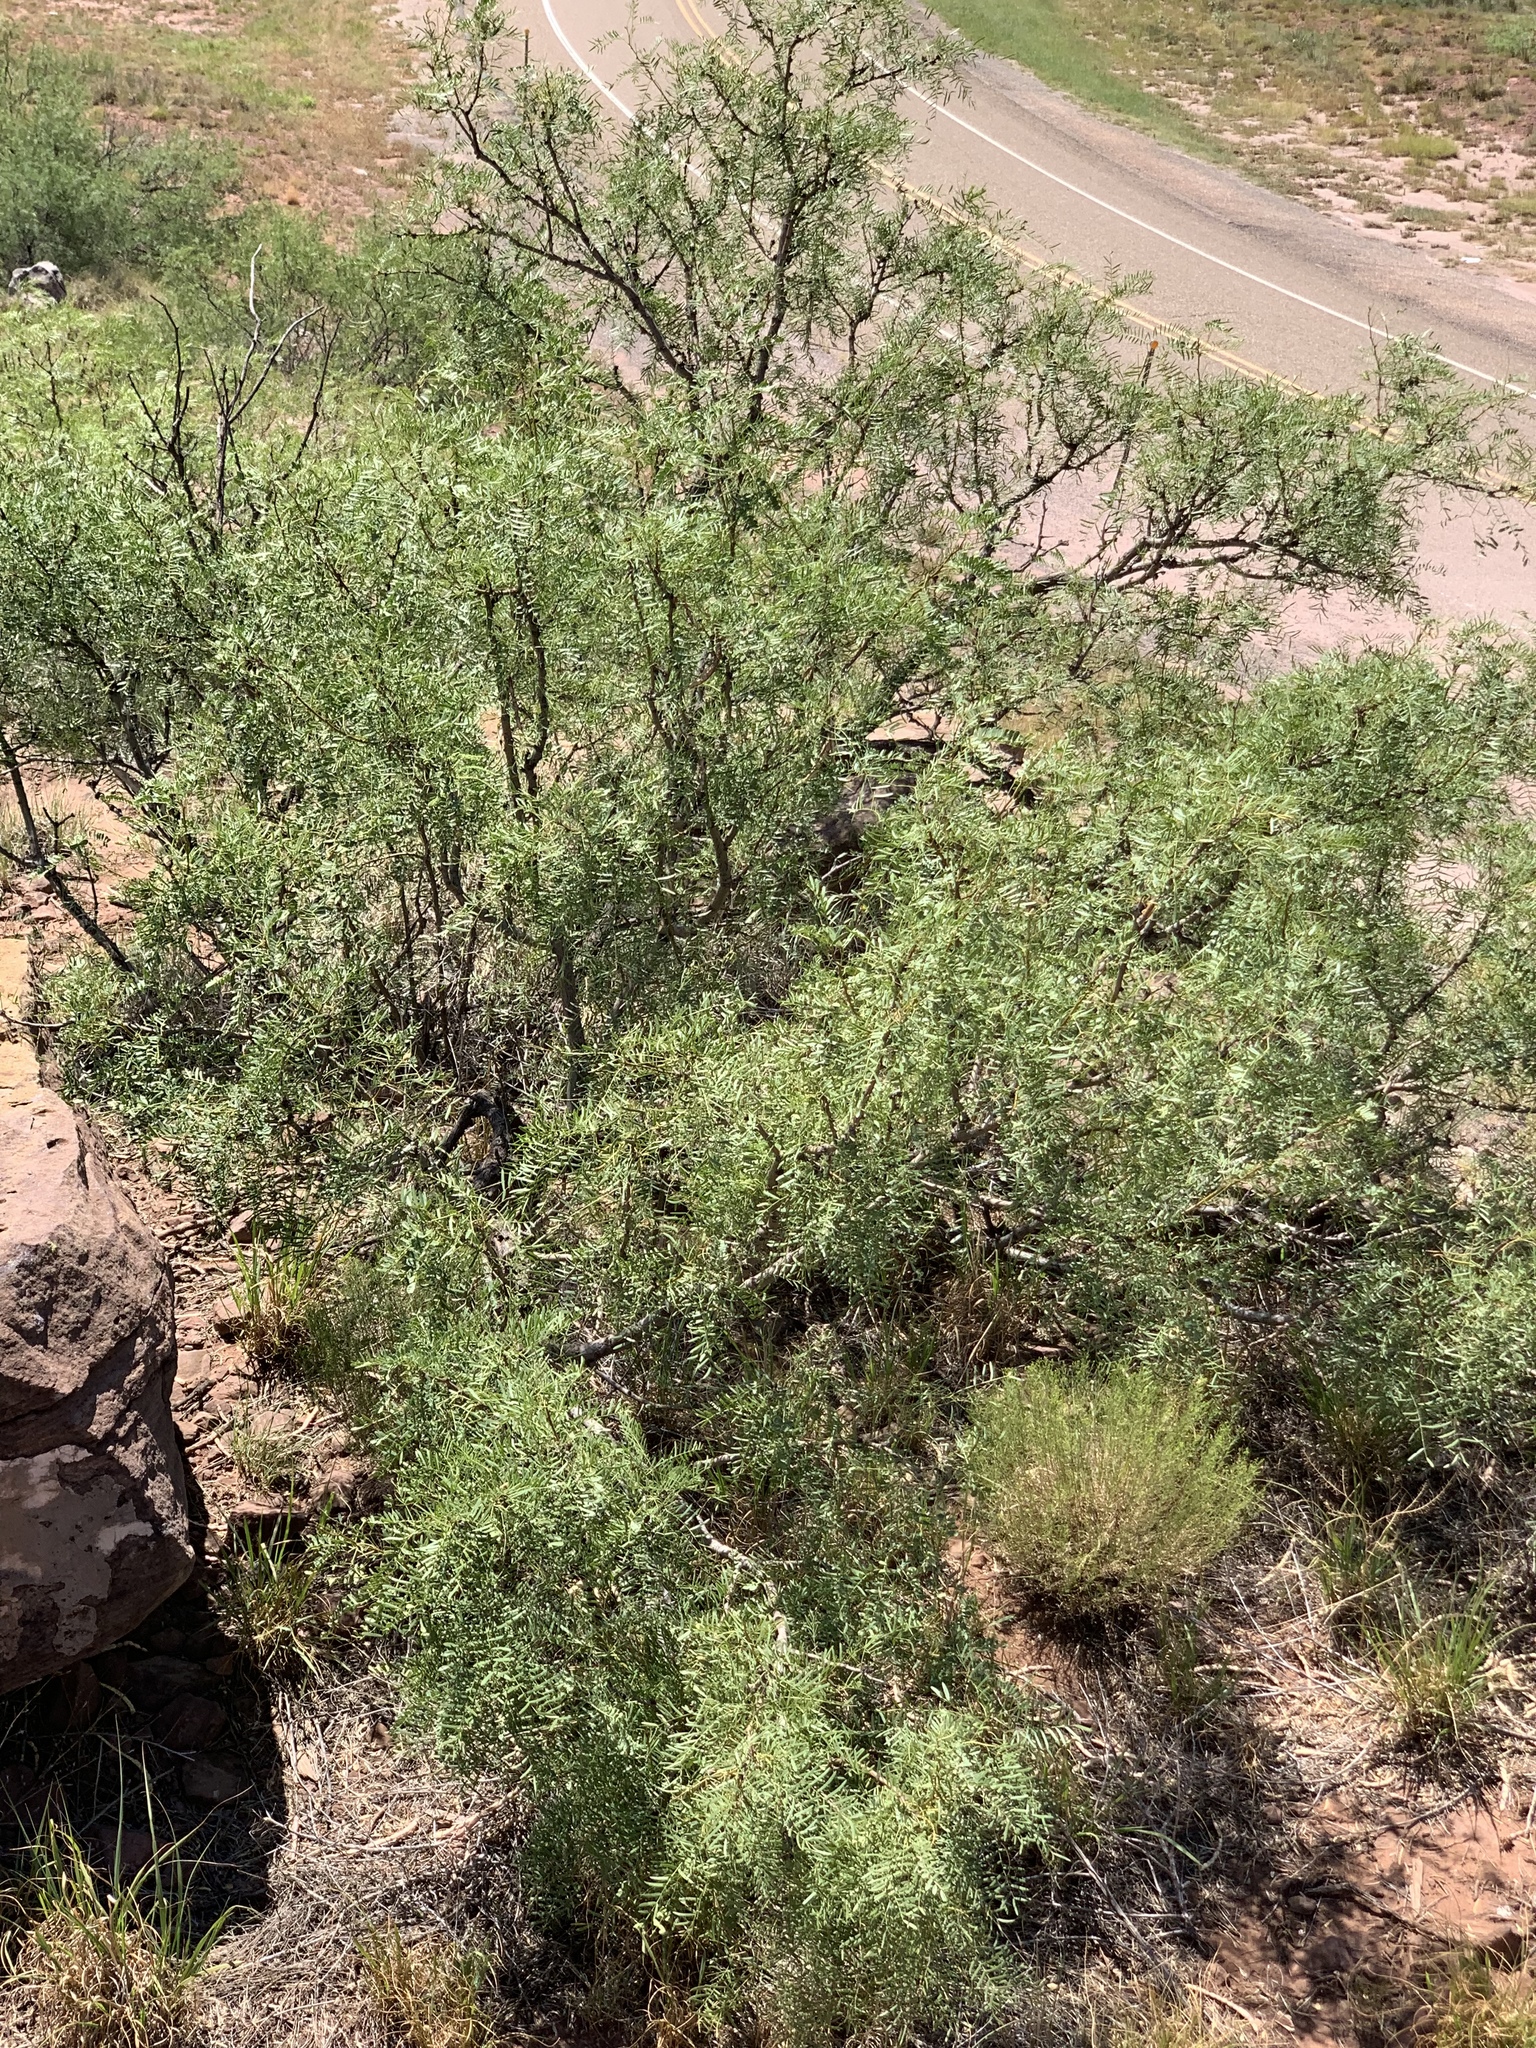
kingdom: Plantae
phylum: Tracheophyta
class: Magnoliopsida
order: Fabales
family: Fabaceae
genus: Prosopis
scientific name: Prosopis glandulosa
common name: Honey mesquite
